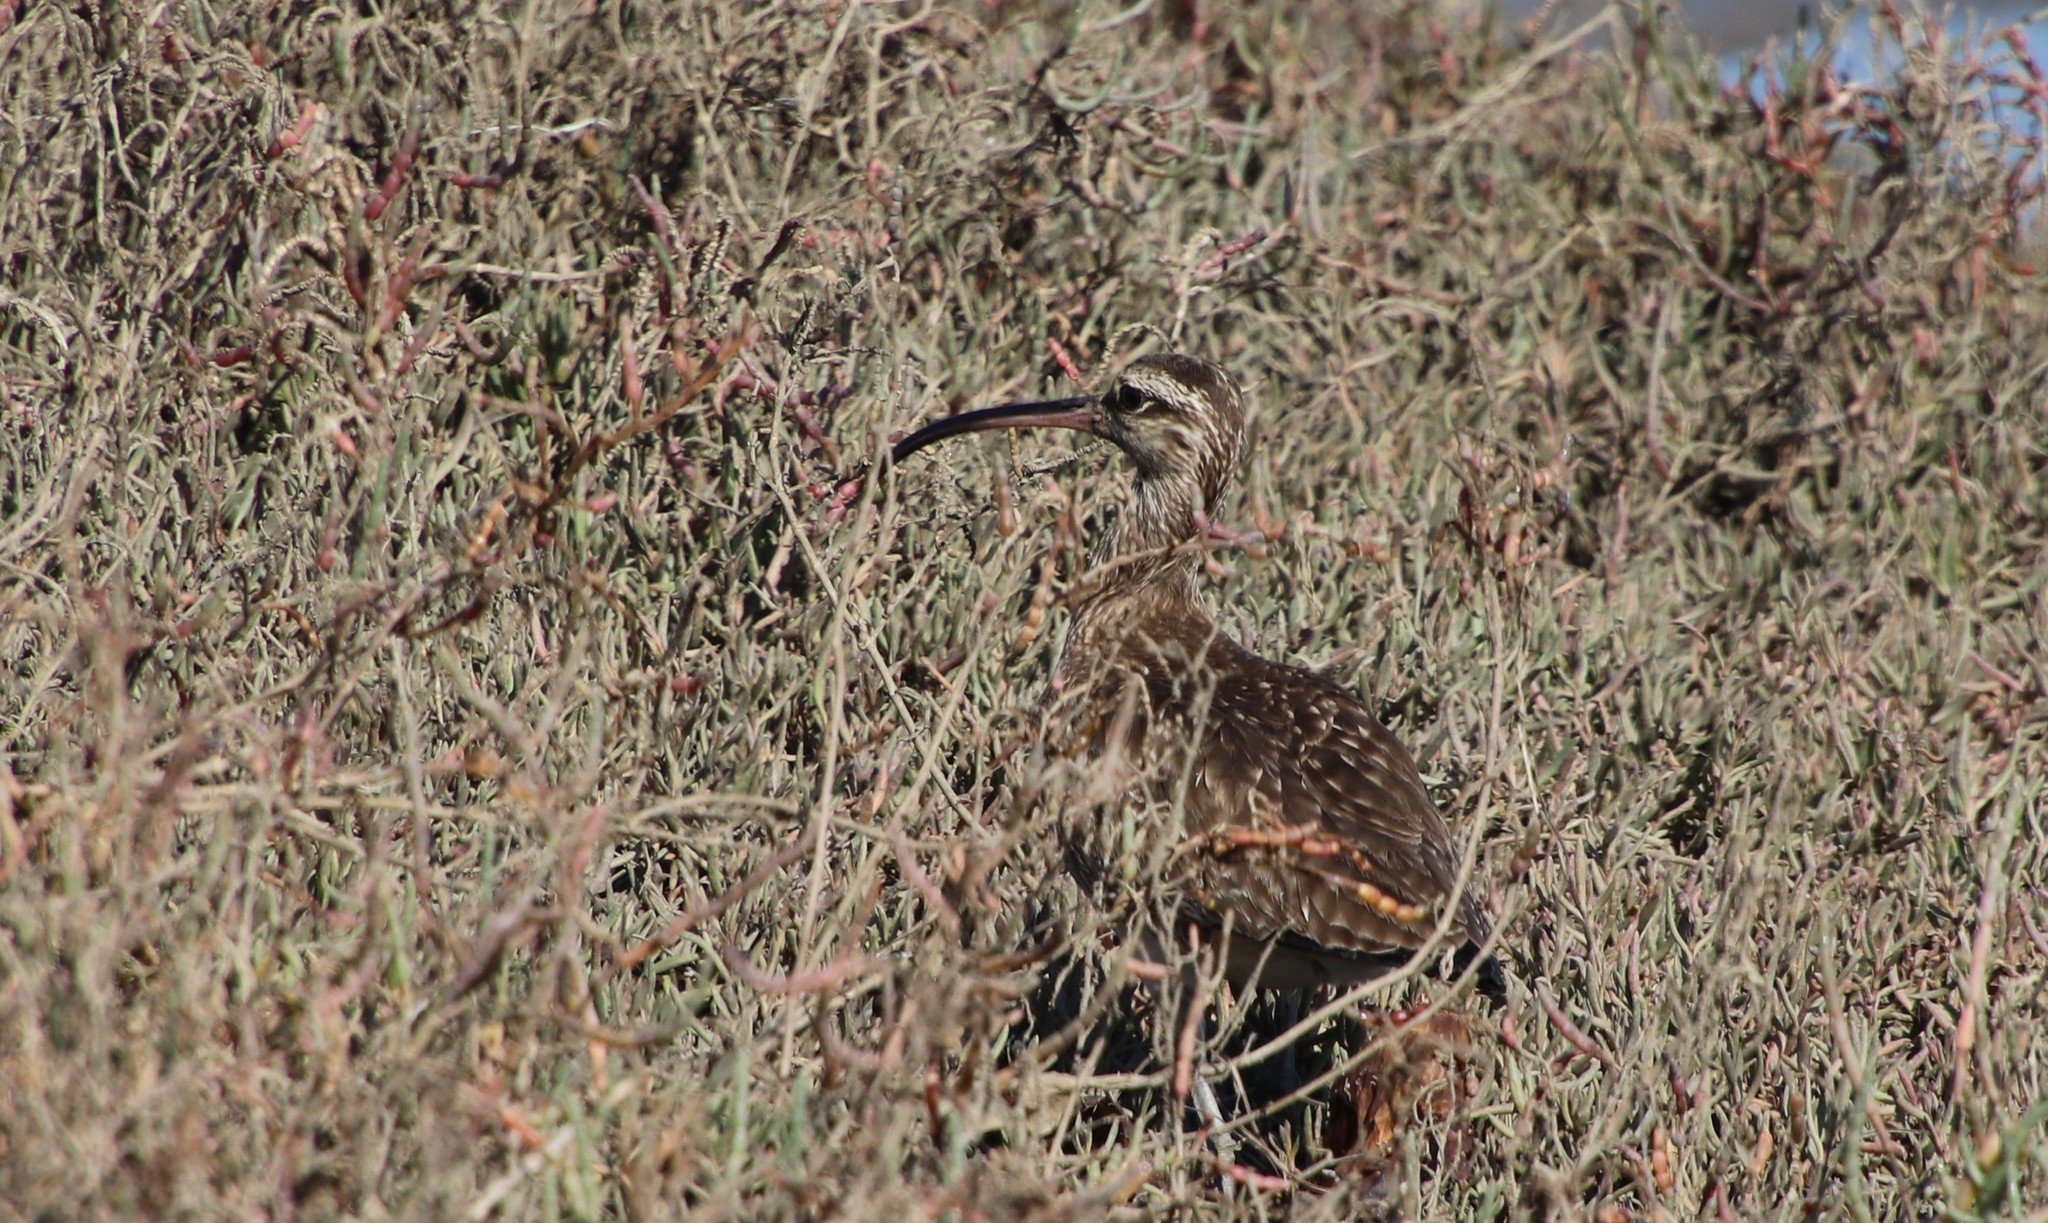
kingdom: Animalia
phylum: Chordata
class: Aves
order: Charadriiformes
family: Scolopacidae
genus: Numenius
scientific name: Numenius phaeopus
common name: Whimbrel
